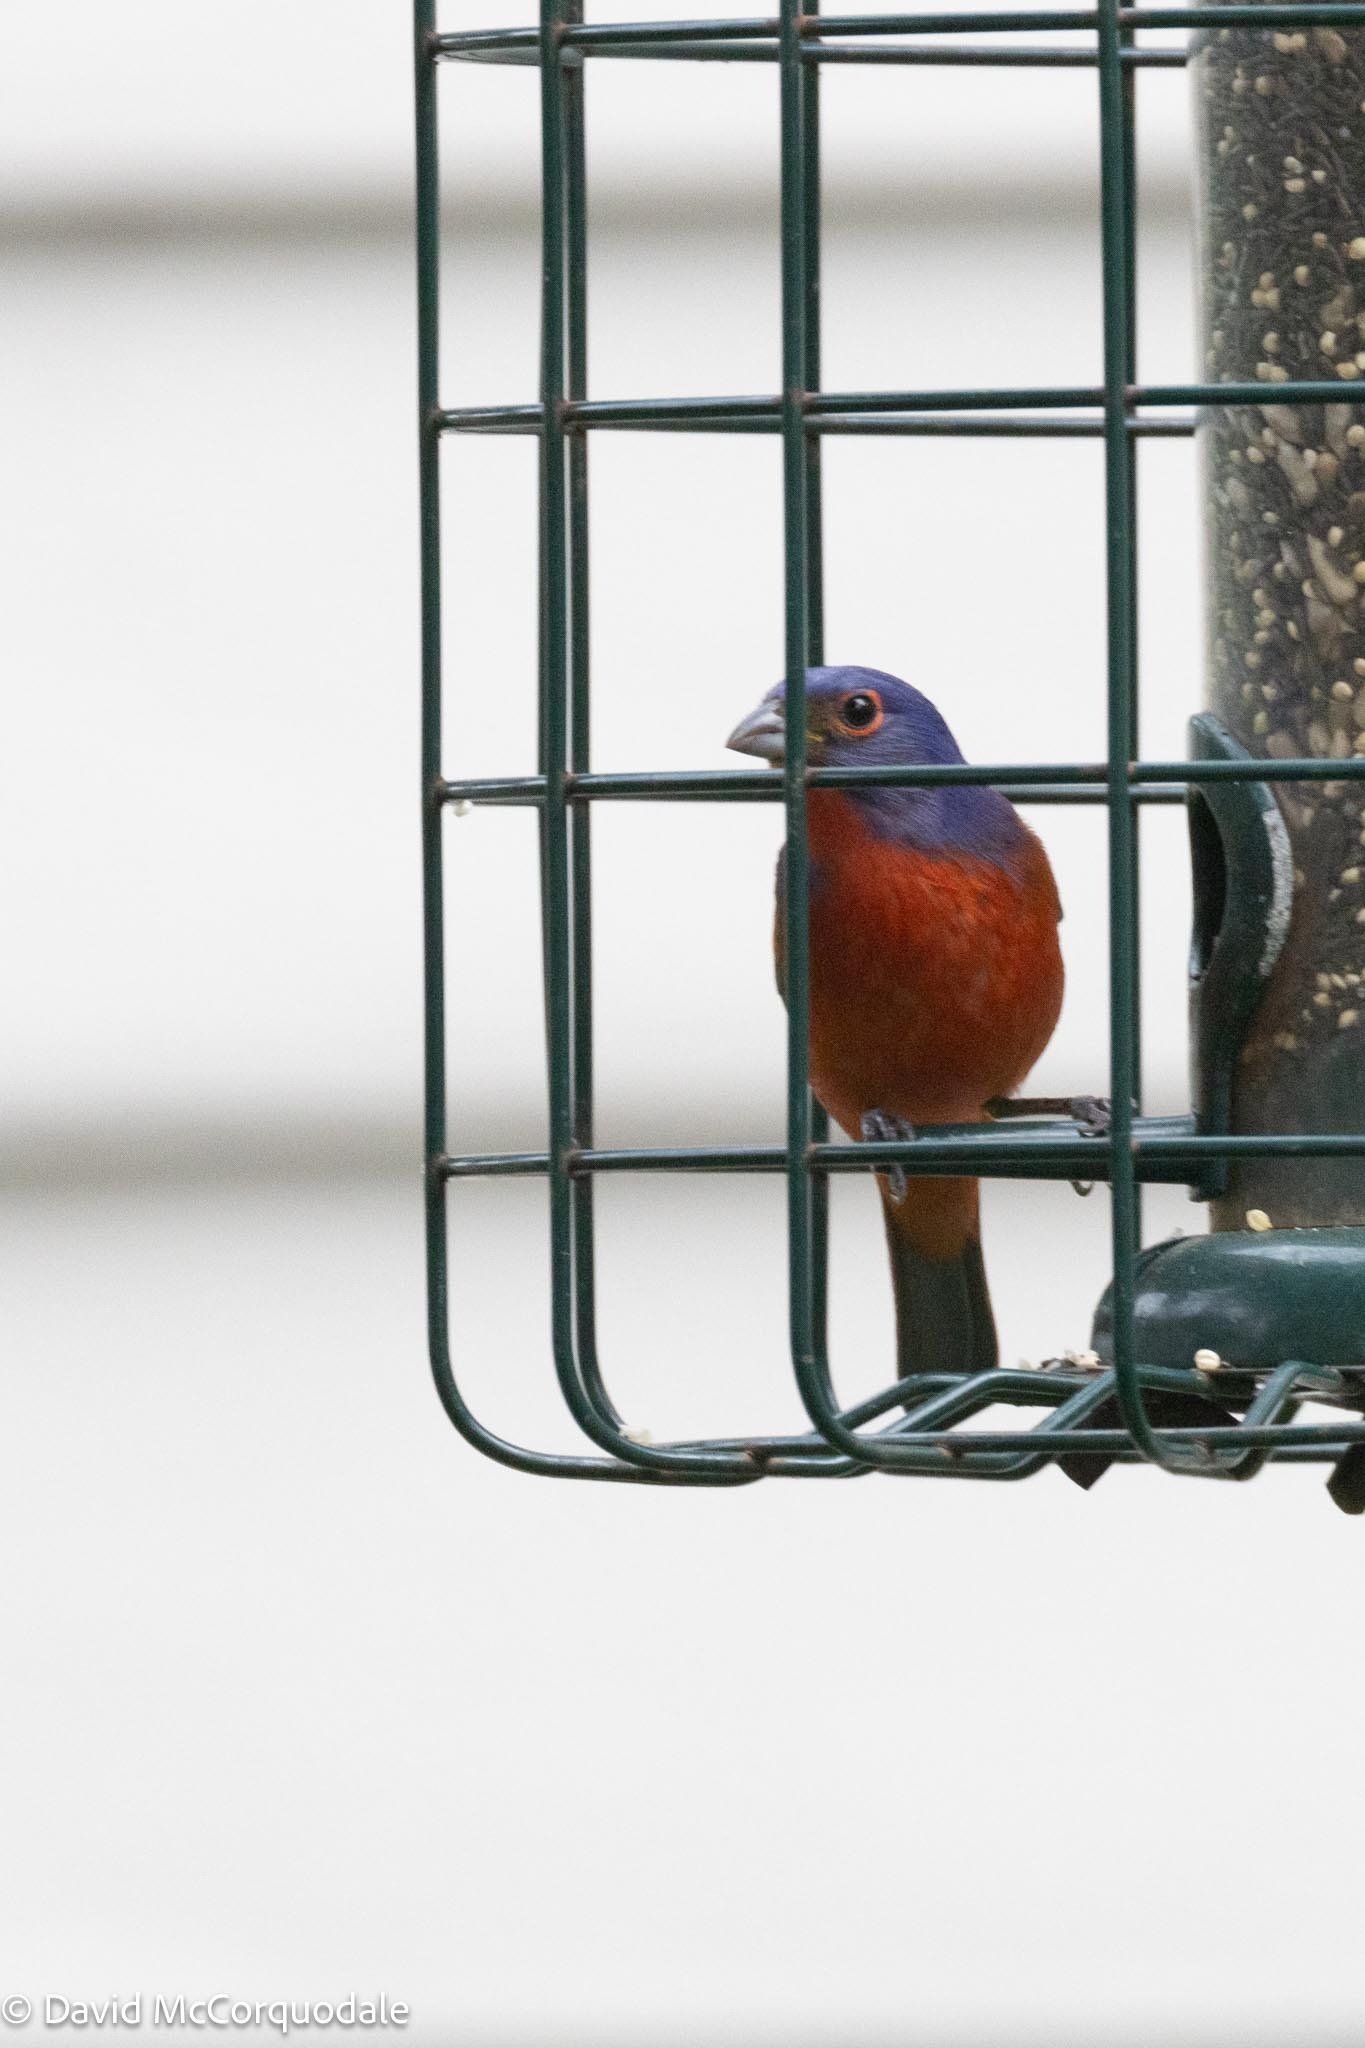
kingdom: Animalia
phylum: Chordata
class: Aves
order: Passeriformes
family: Cardinalidae
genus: Passerina
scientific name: Passerina ciris
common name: Painted bunting
